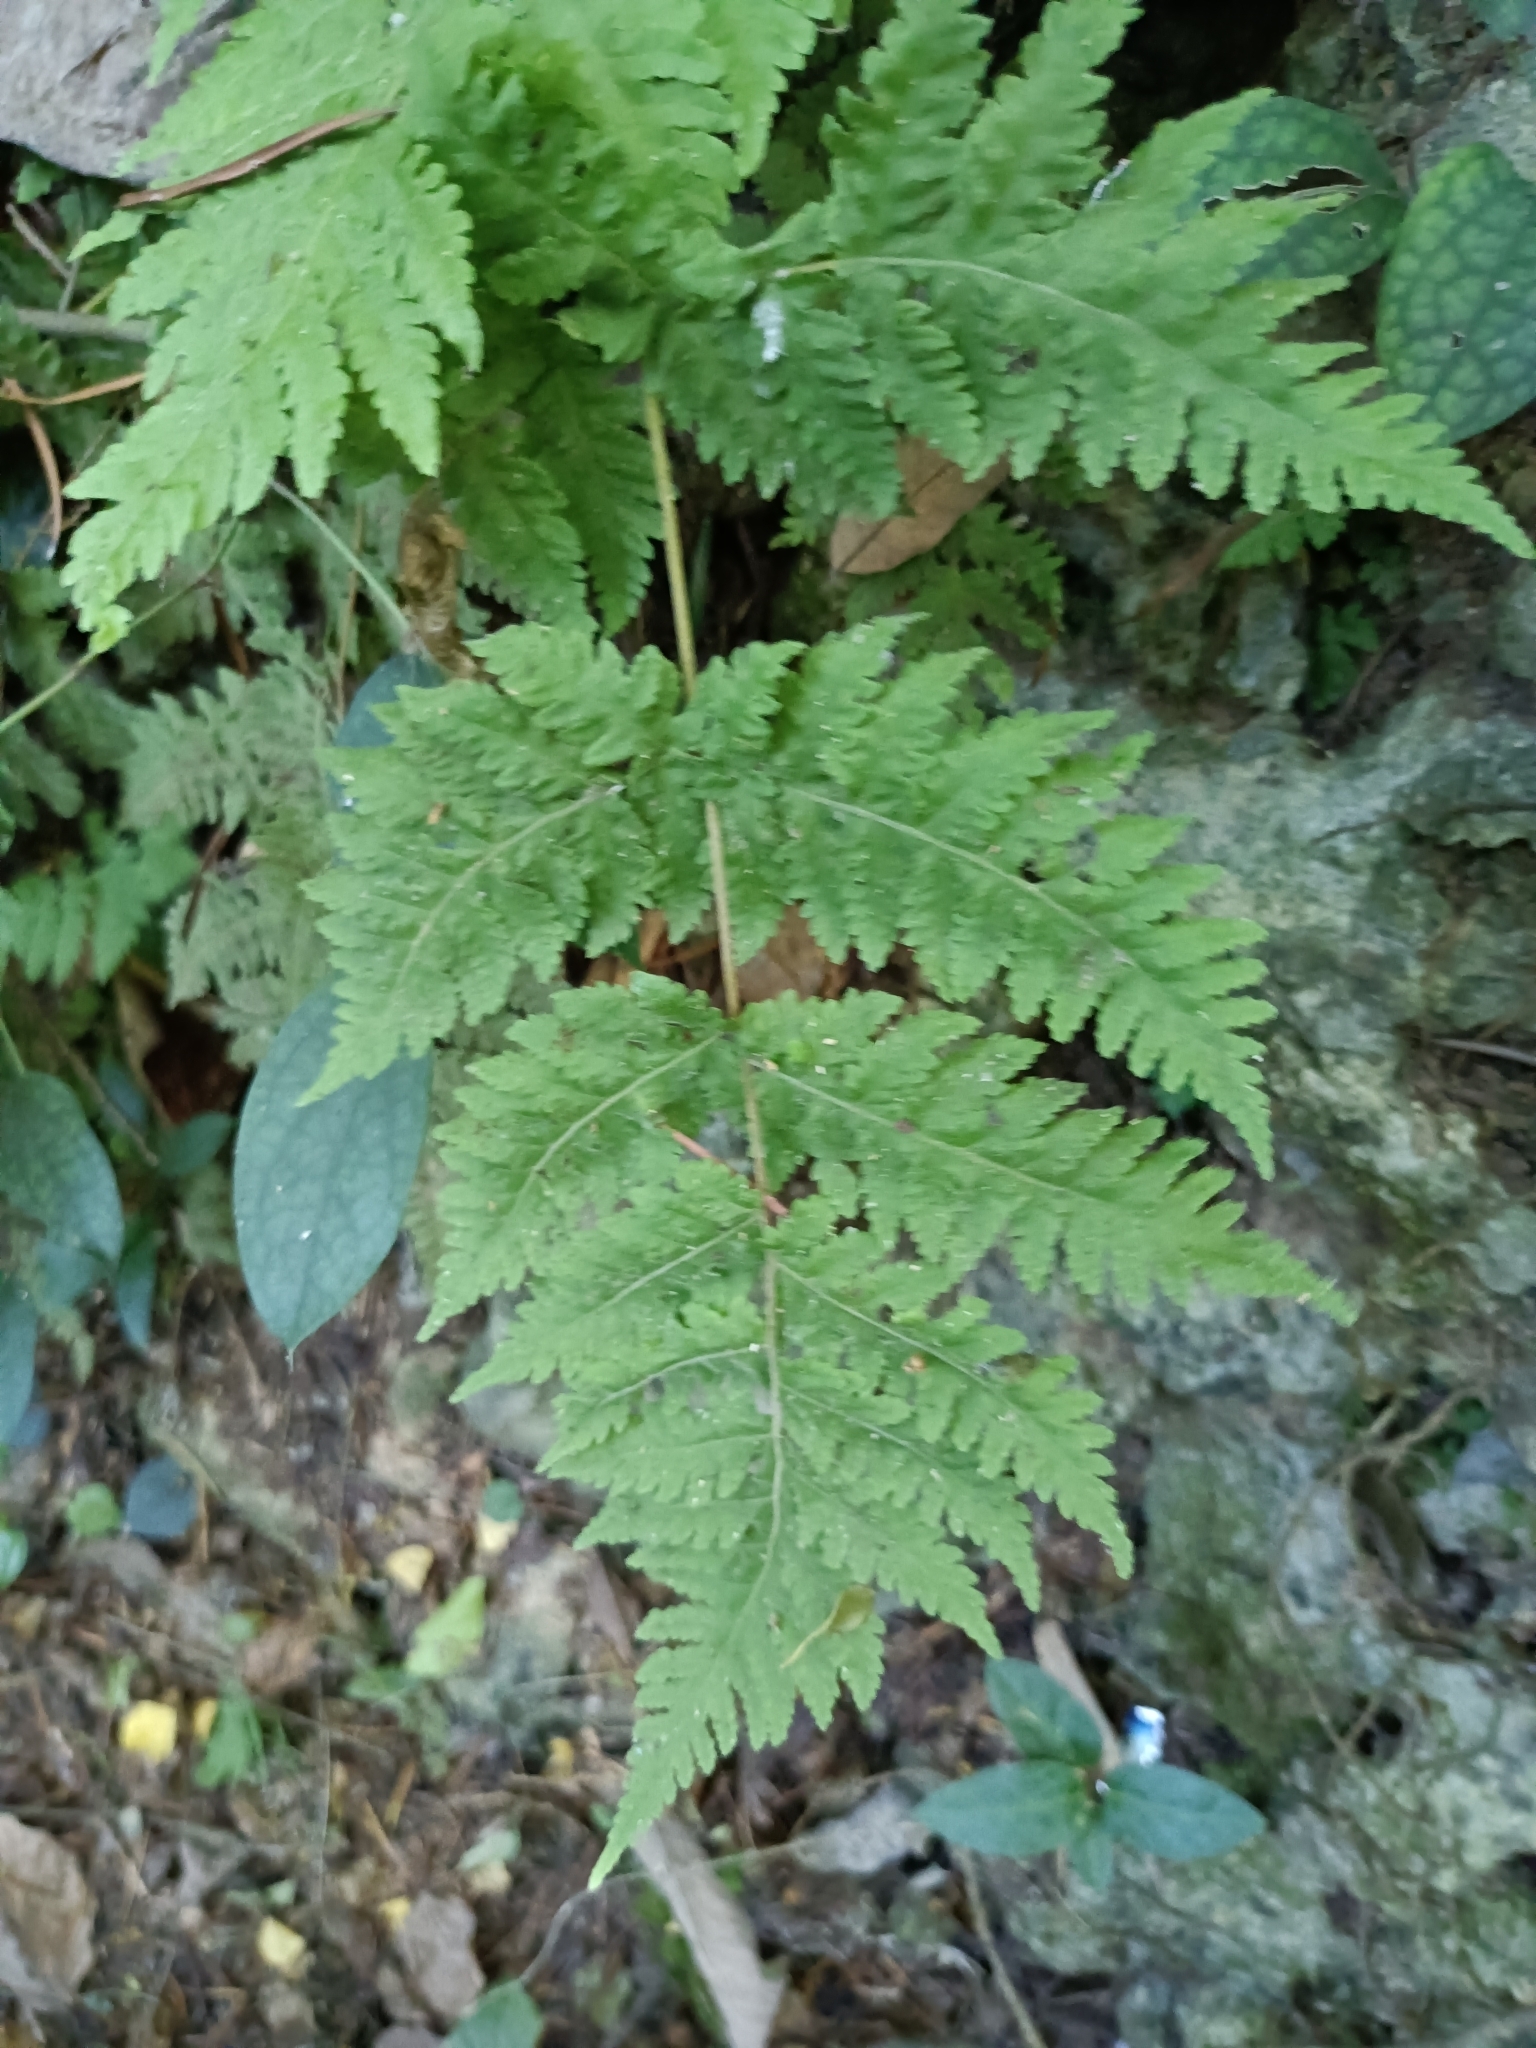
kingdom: Plantae
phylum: Tracheophyta
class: Polypodiopsida
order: Polypodiales
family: Tectariaceae
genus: Tectaria
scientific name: Tectaria membranacea
